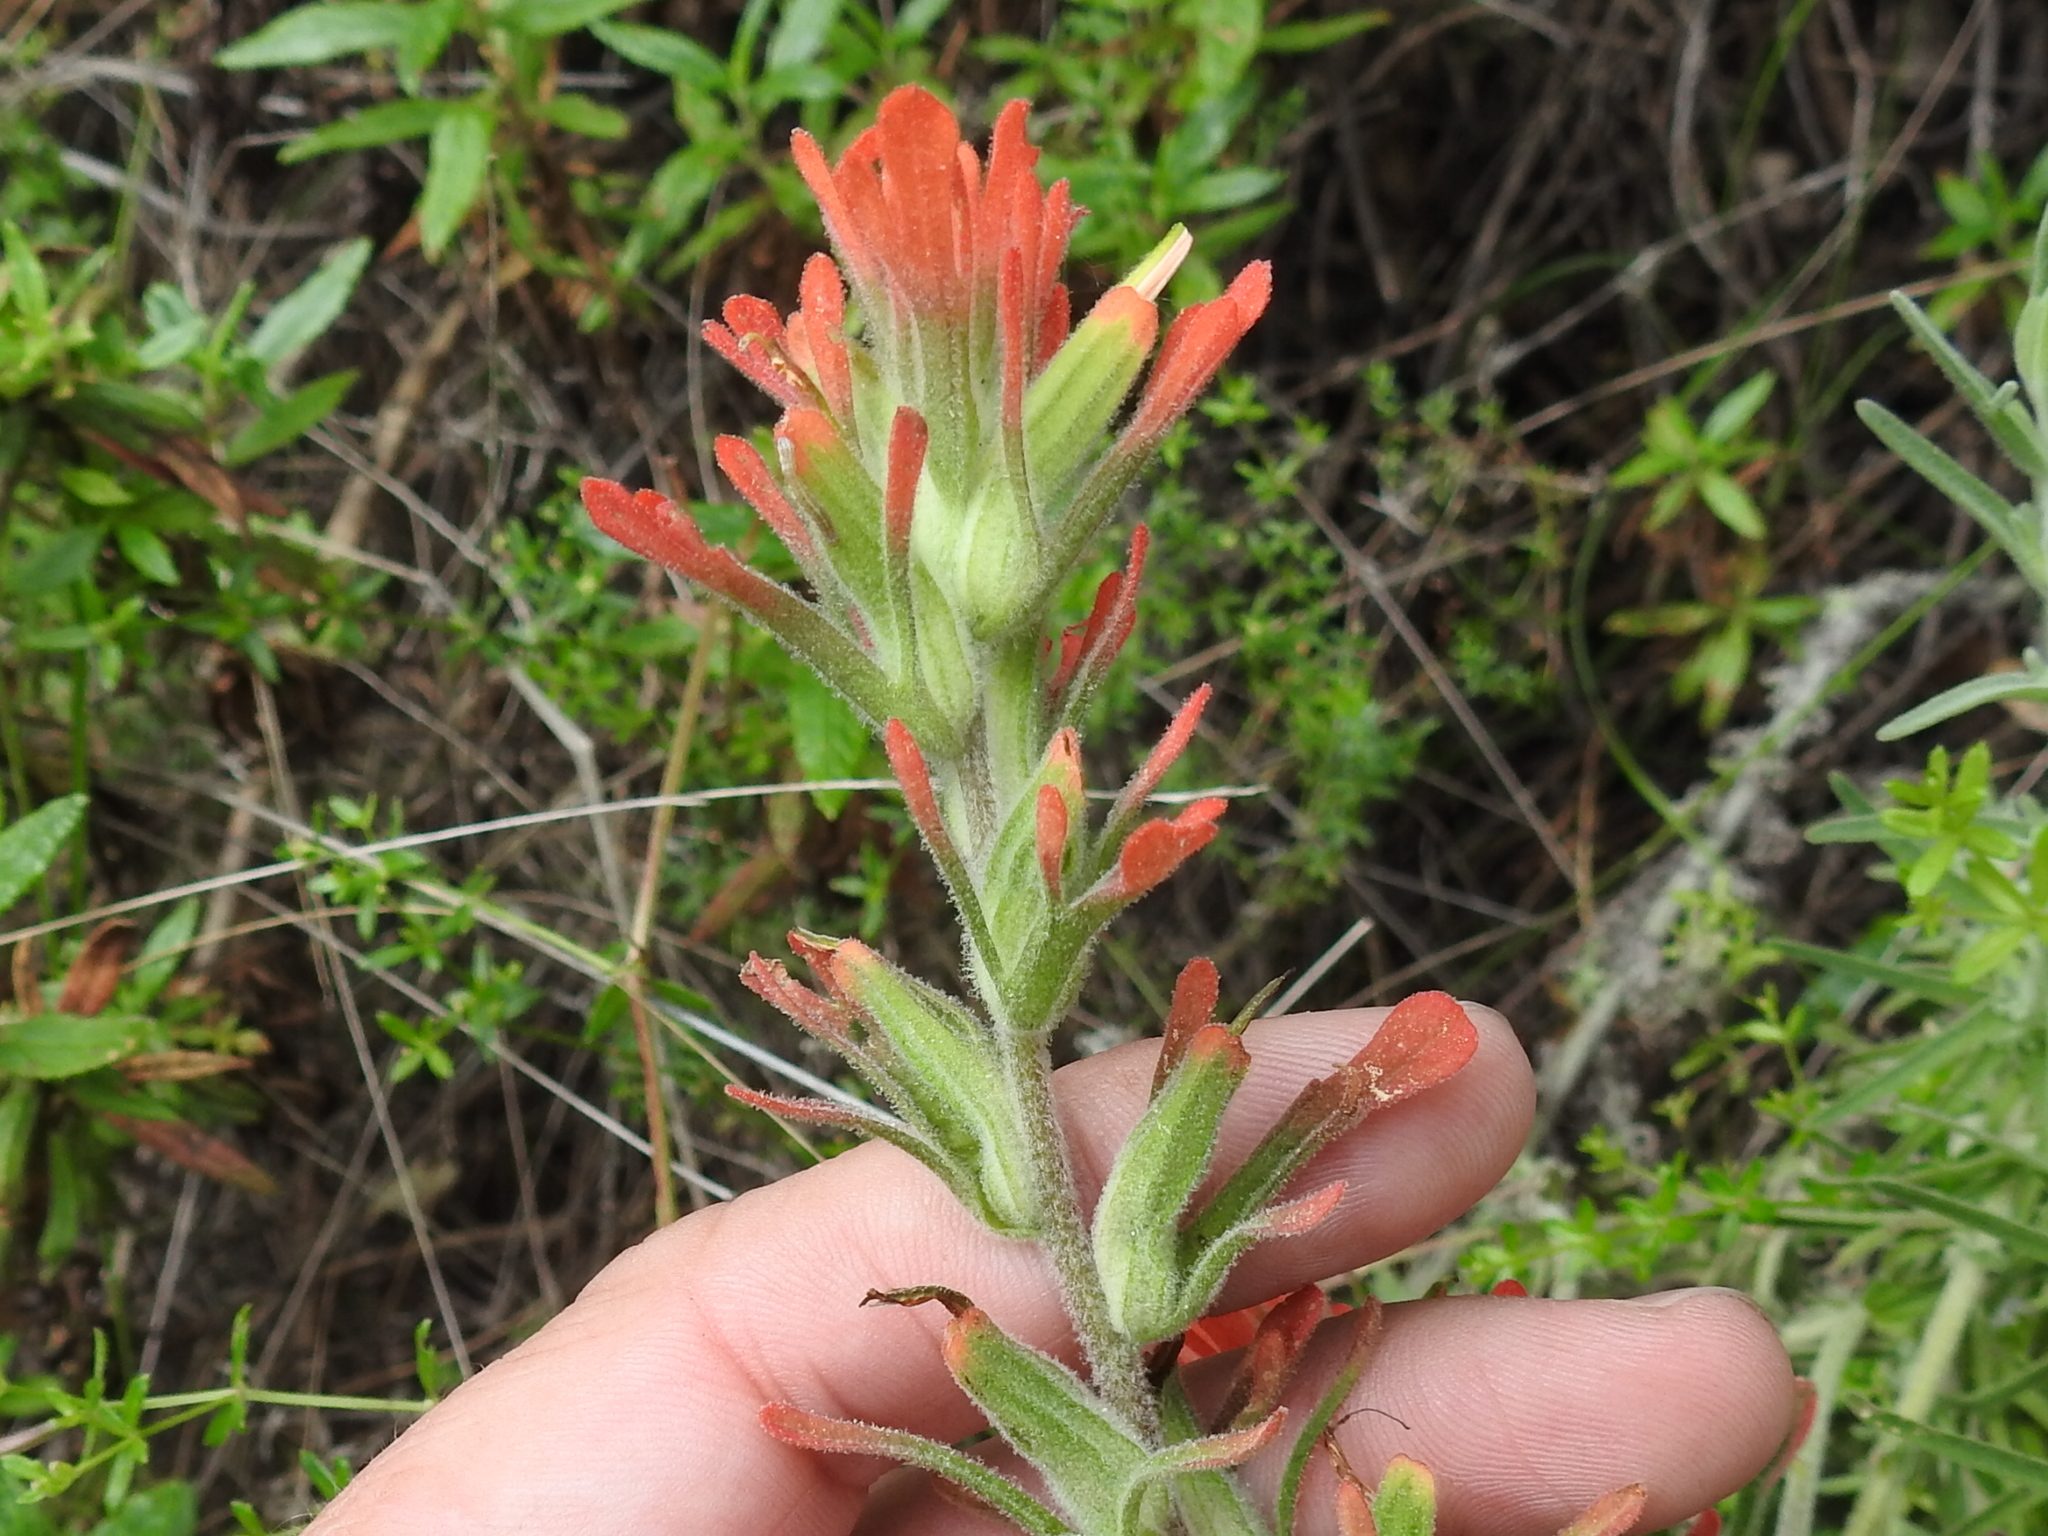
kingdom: Plantae
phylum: Tracheophyta
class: Magnoliopsida
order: Lamiales
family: Orobanchaceae
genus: Castilleja
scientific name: Castilleja foliolosa
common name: Woolly indian paintbrush
